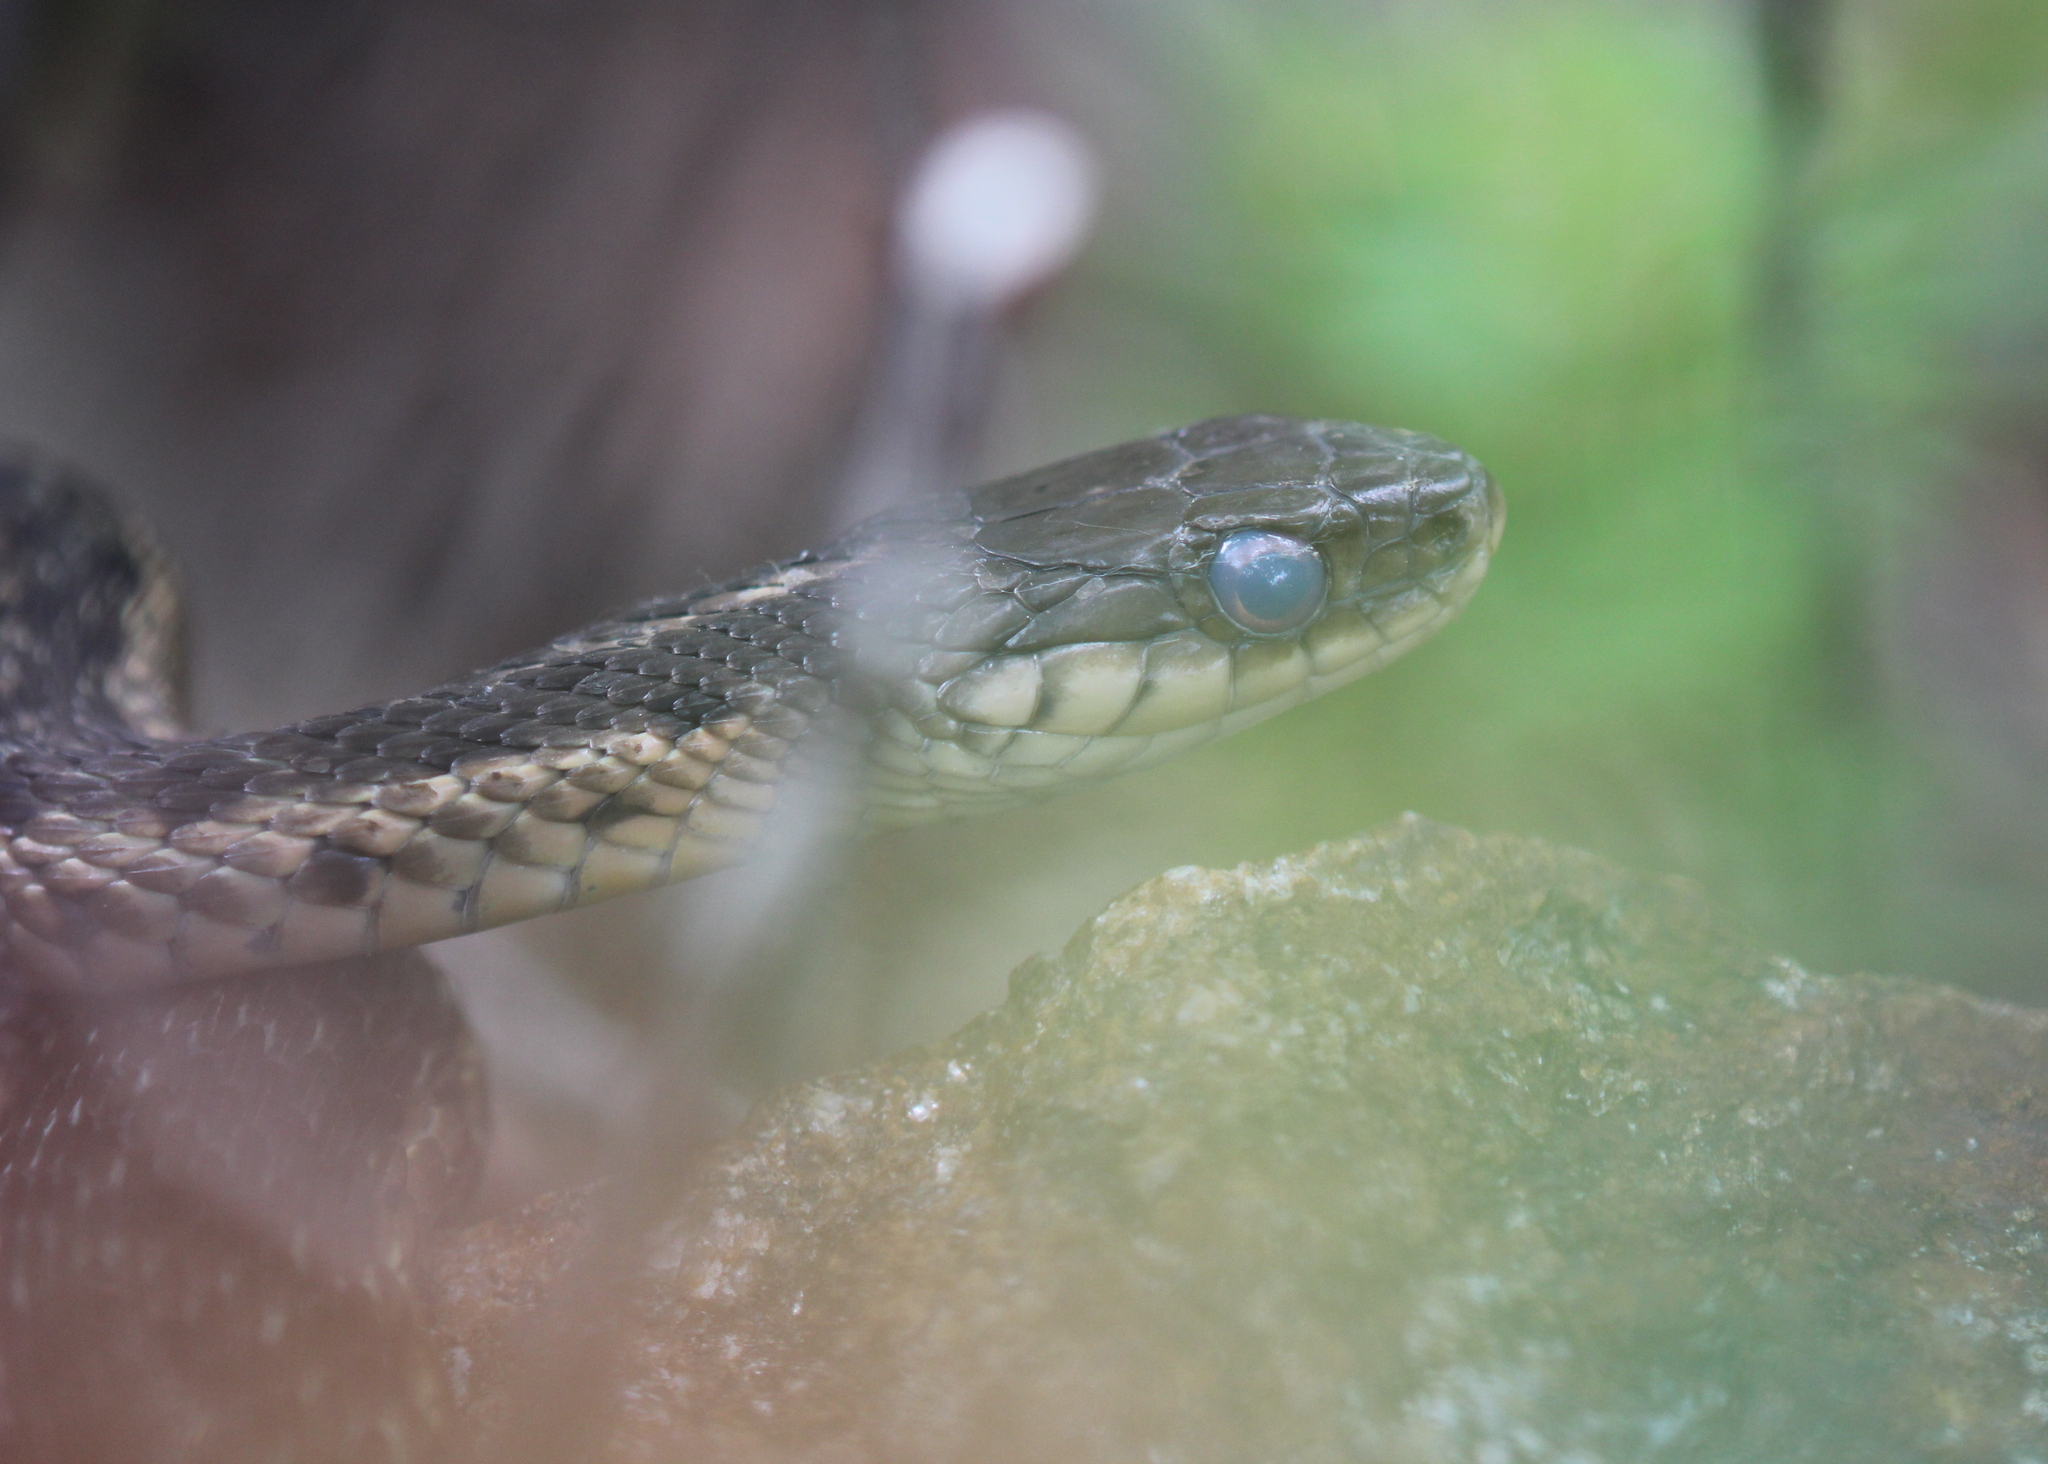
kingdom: Animalia
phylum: Chordata
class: Squamata
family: Colubridae
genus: Thamnophis
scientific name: Thamnophis sirtalis
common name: Common garter snake
